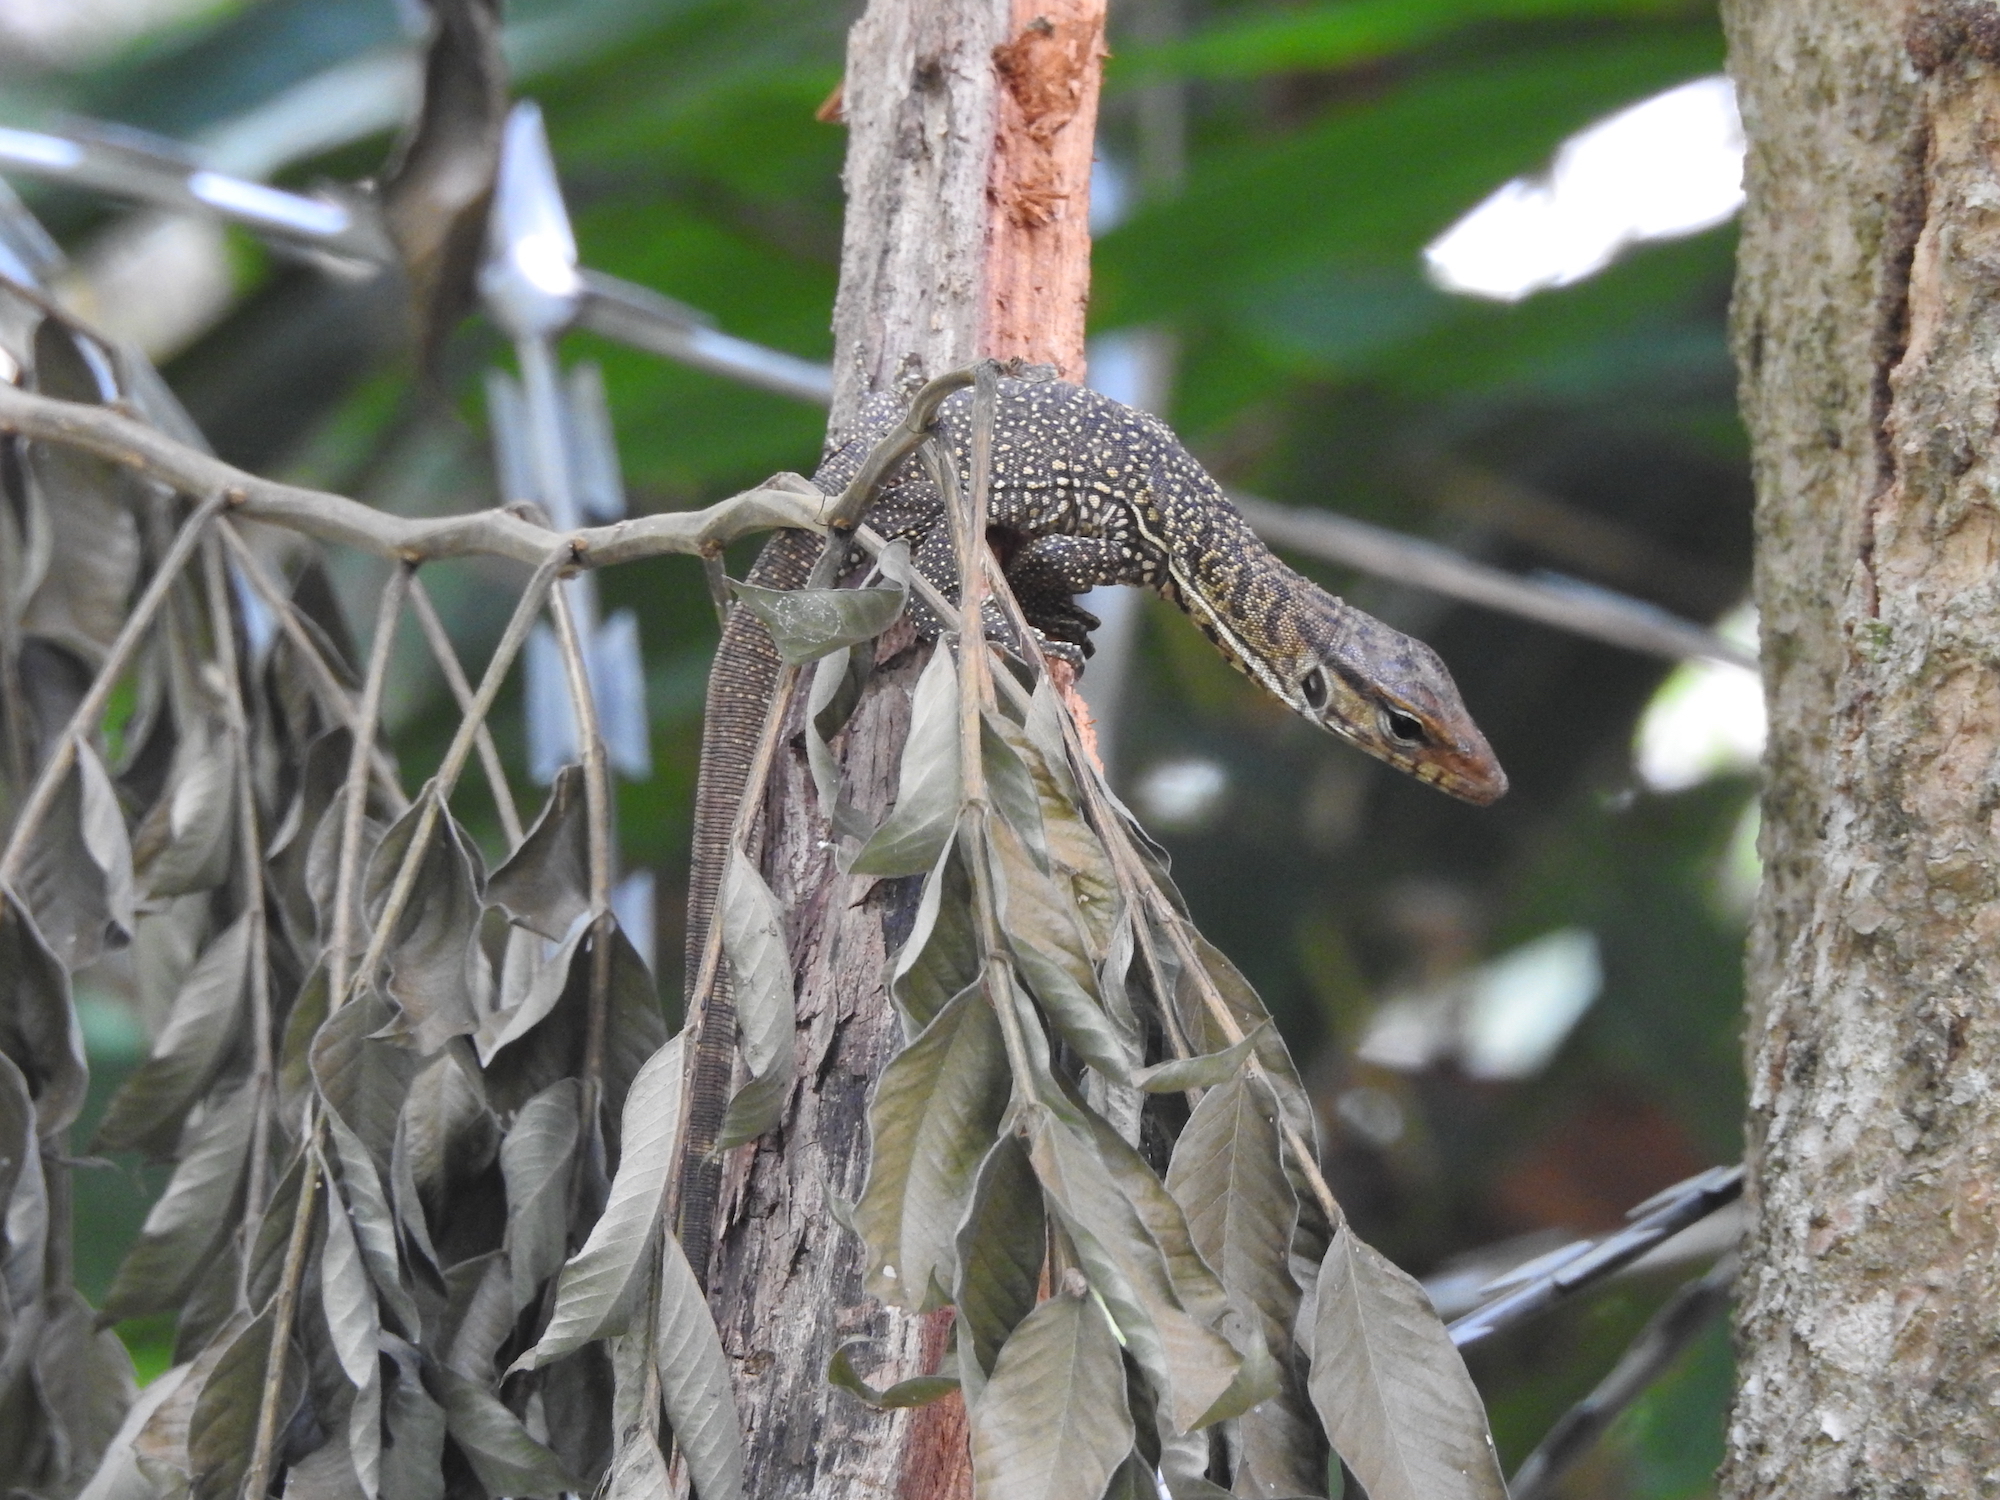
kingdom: Animalia
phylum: Chordata
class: Squamata
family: Varanidae
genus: Varanus
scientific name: Varanus nebulosus
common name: Clouded monitor
